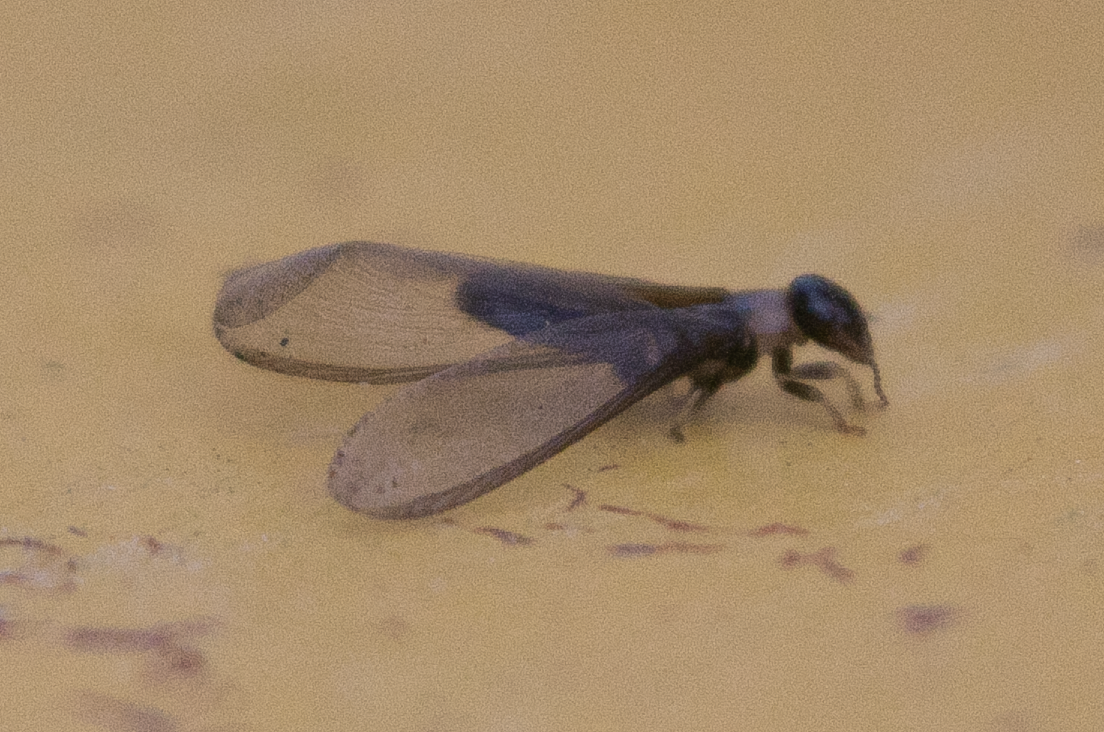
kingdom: Animalia
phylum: Arthropoda
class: Insecta
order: Blattodea
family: Kalotermitidae
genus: Kalotermes
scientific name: Kalotermes flavicollis
